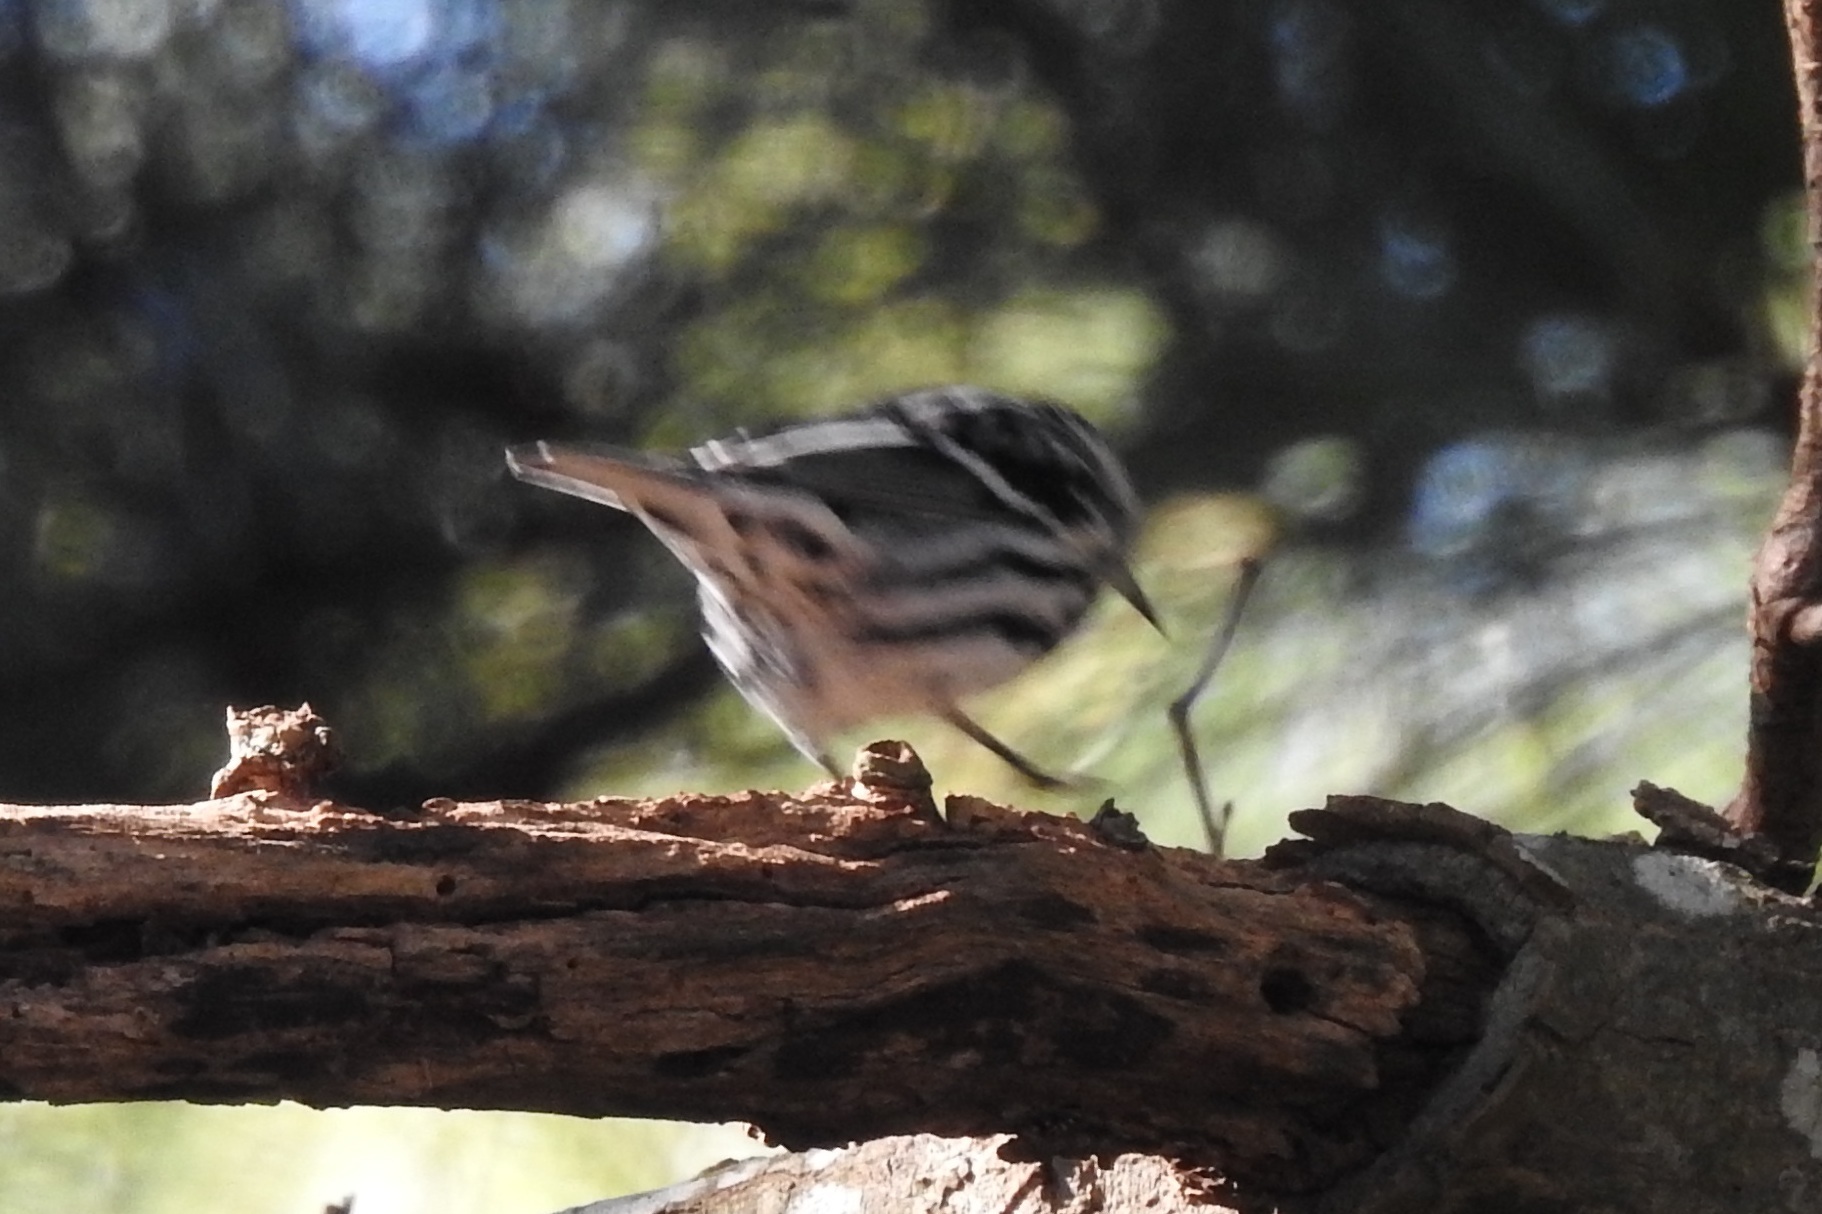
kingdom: Animalia
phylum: Chordata
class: Aves
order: Passeriformes
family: Parulidae
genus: Mniotilta
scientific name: Mniotilta varia
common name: Black-and-white warbler
